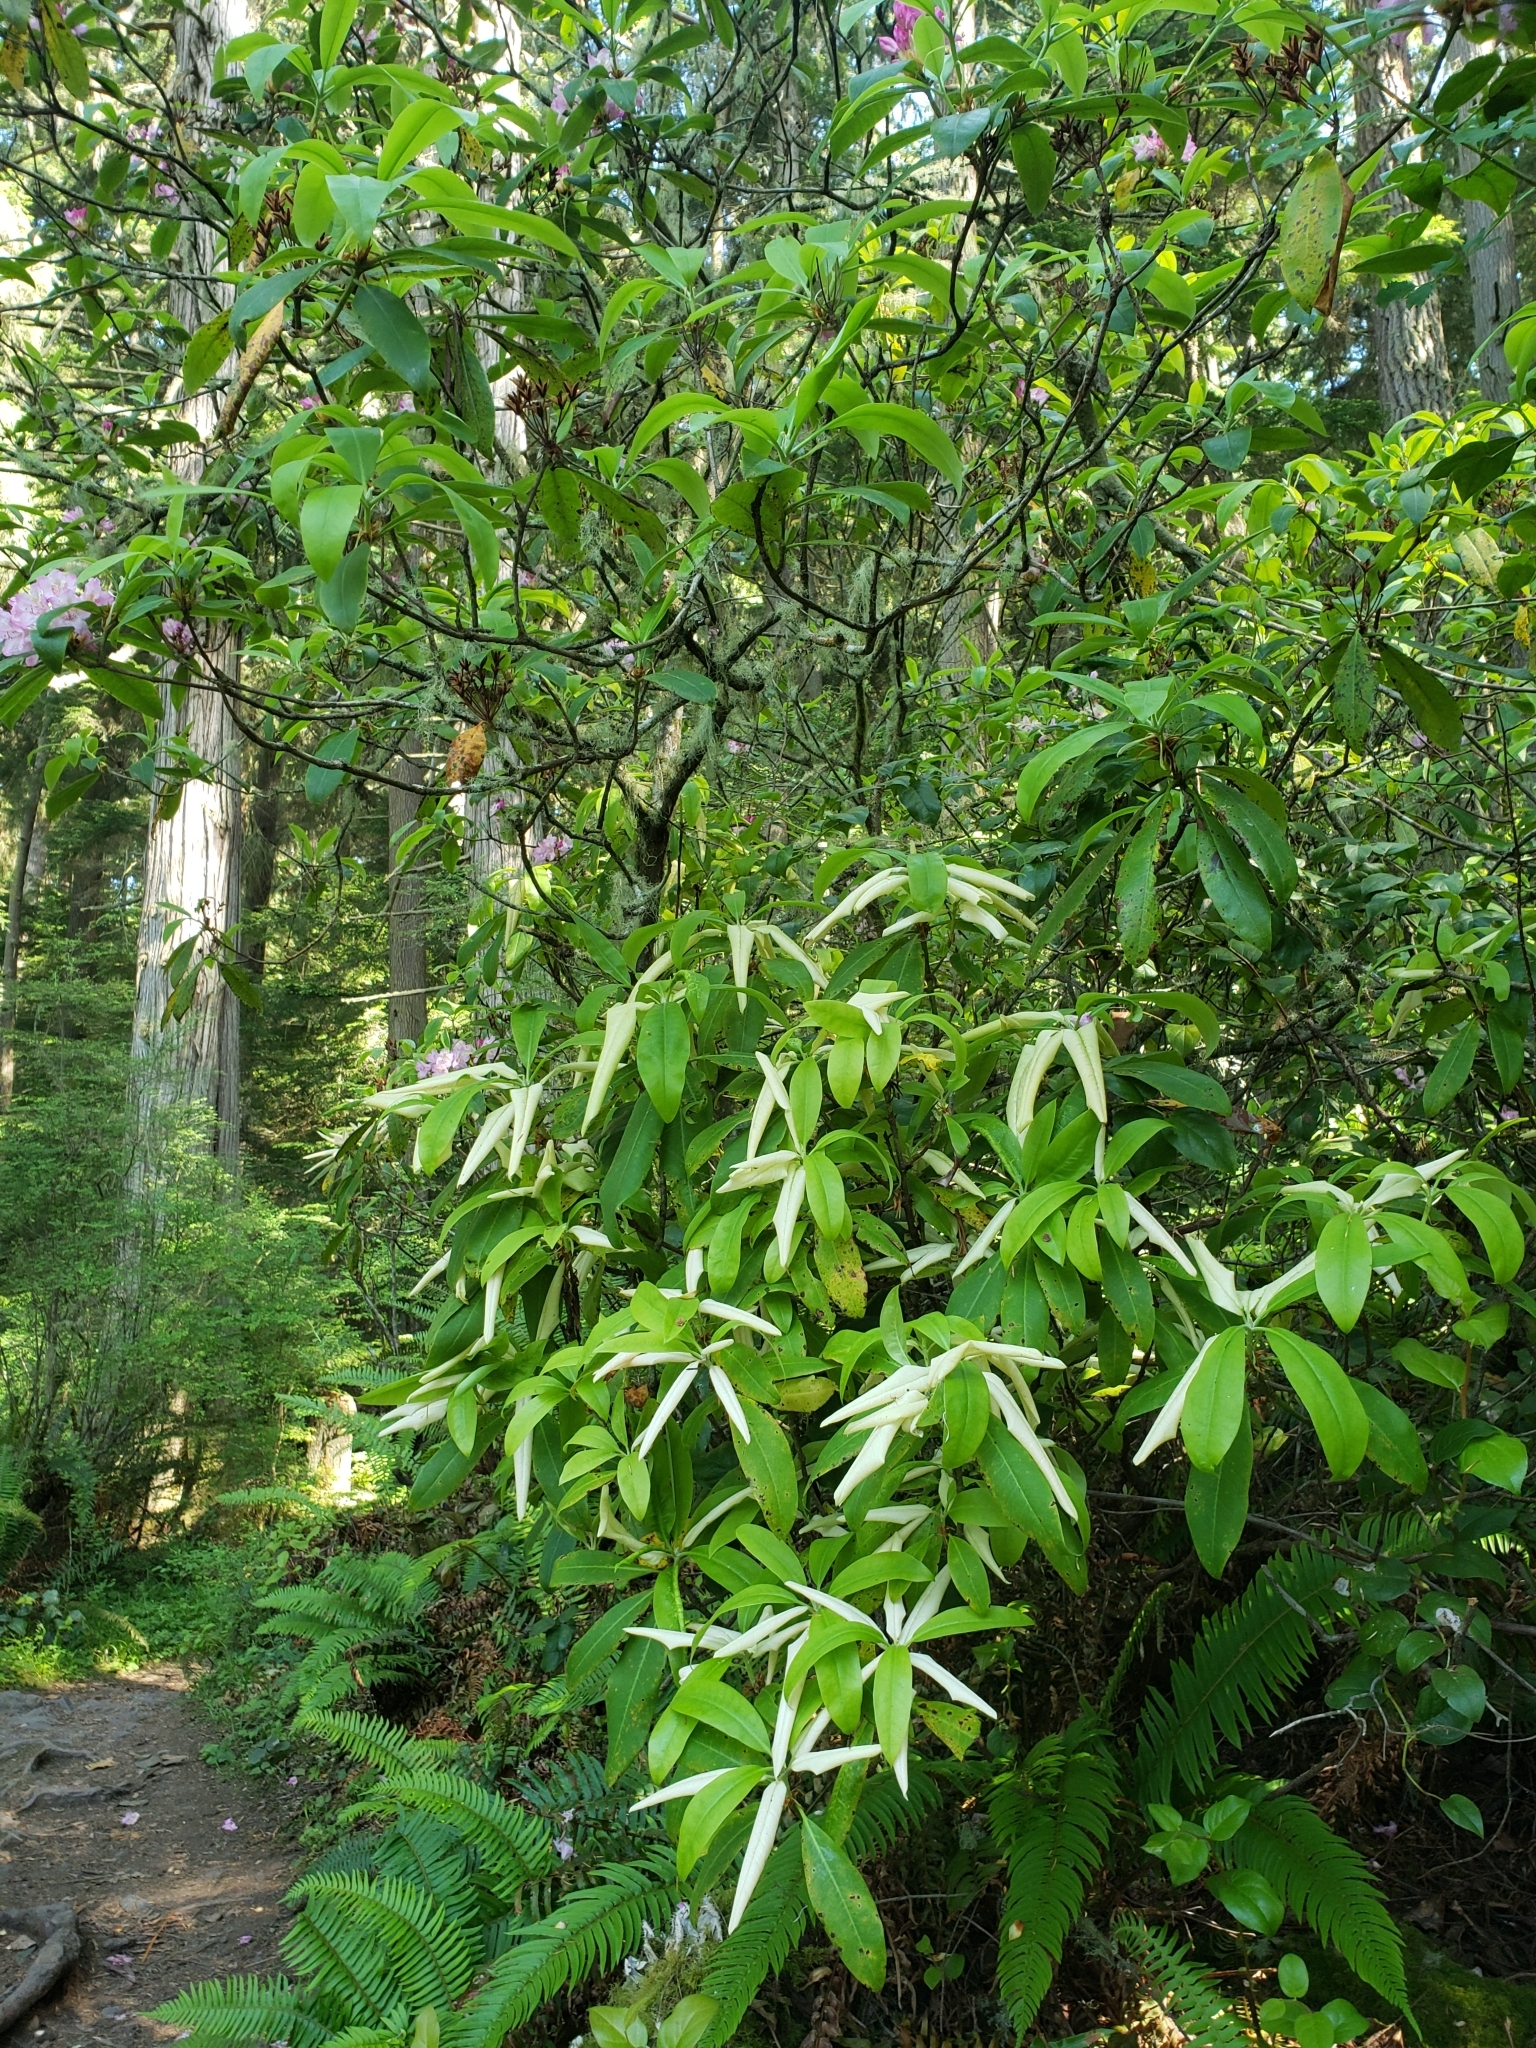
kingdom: Plantae
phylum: Tracheophyta
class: Magnoliopsida
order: Ericales
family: Ericaceae
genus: Rhododendron
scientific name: Rhododendron macrophyllum
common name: California rose bay
